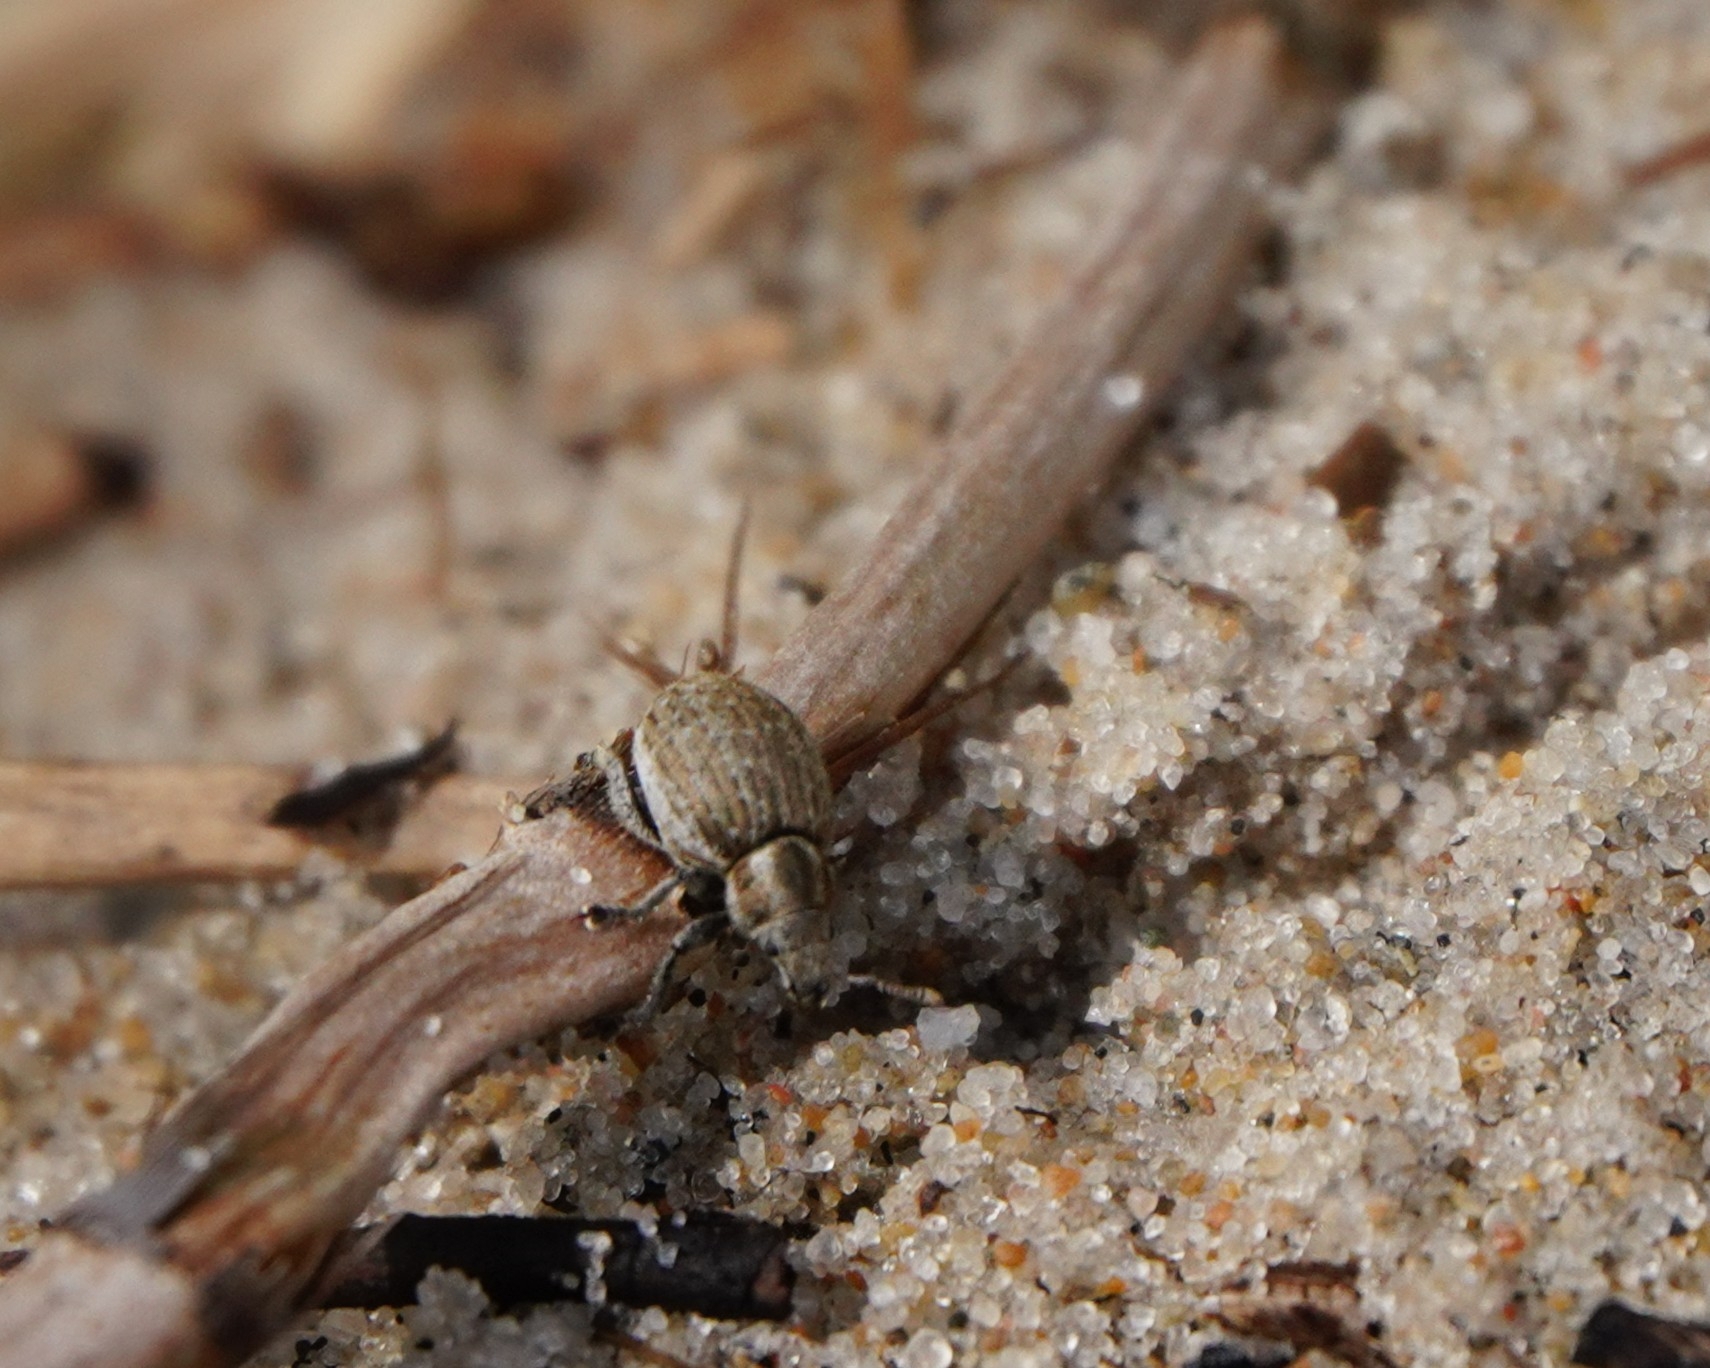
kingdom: Animalia
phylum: Arthropoda
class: Insecta
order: Coleoptera
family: Curculionidae
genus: Philopedon
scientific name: Philopedon plagiatum
